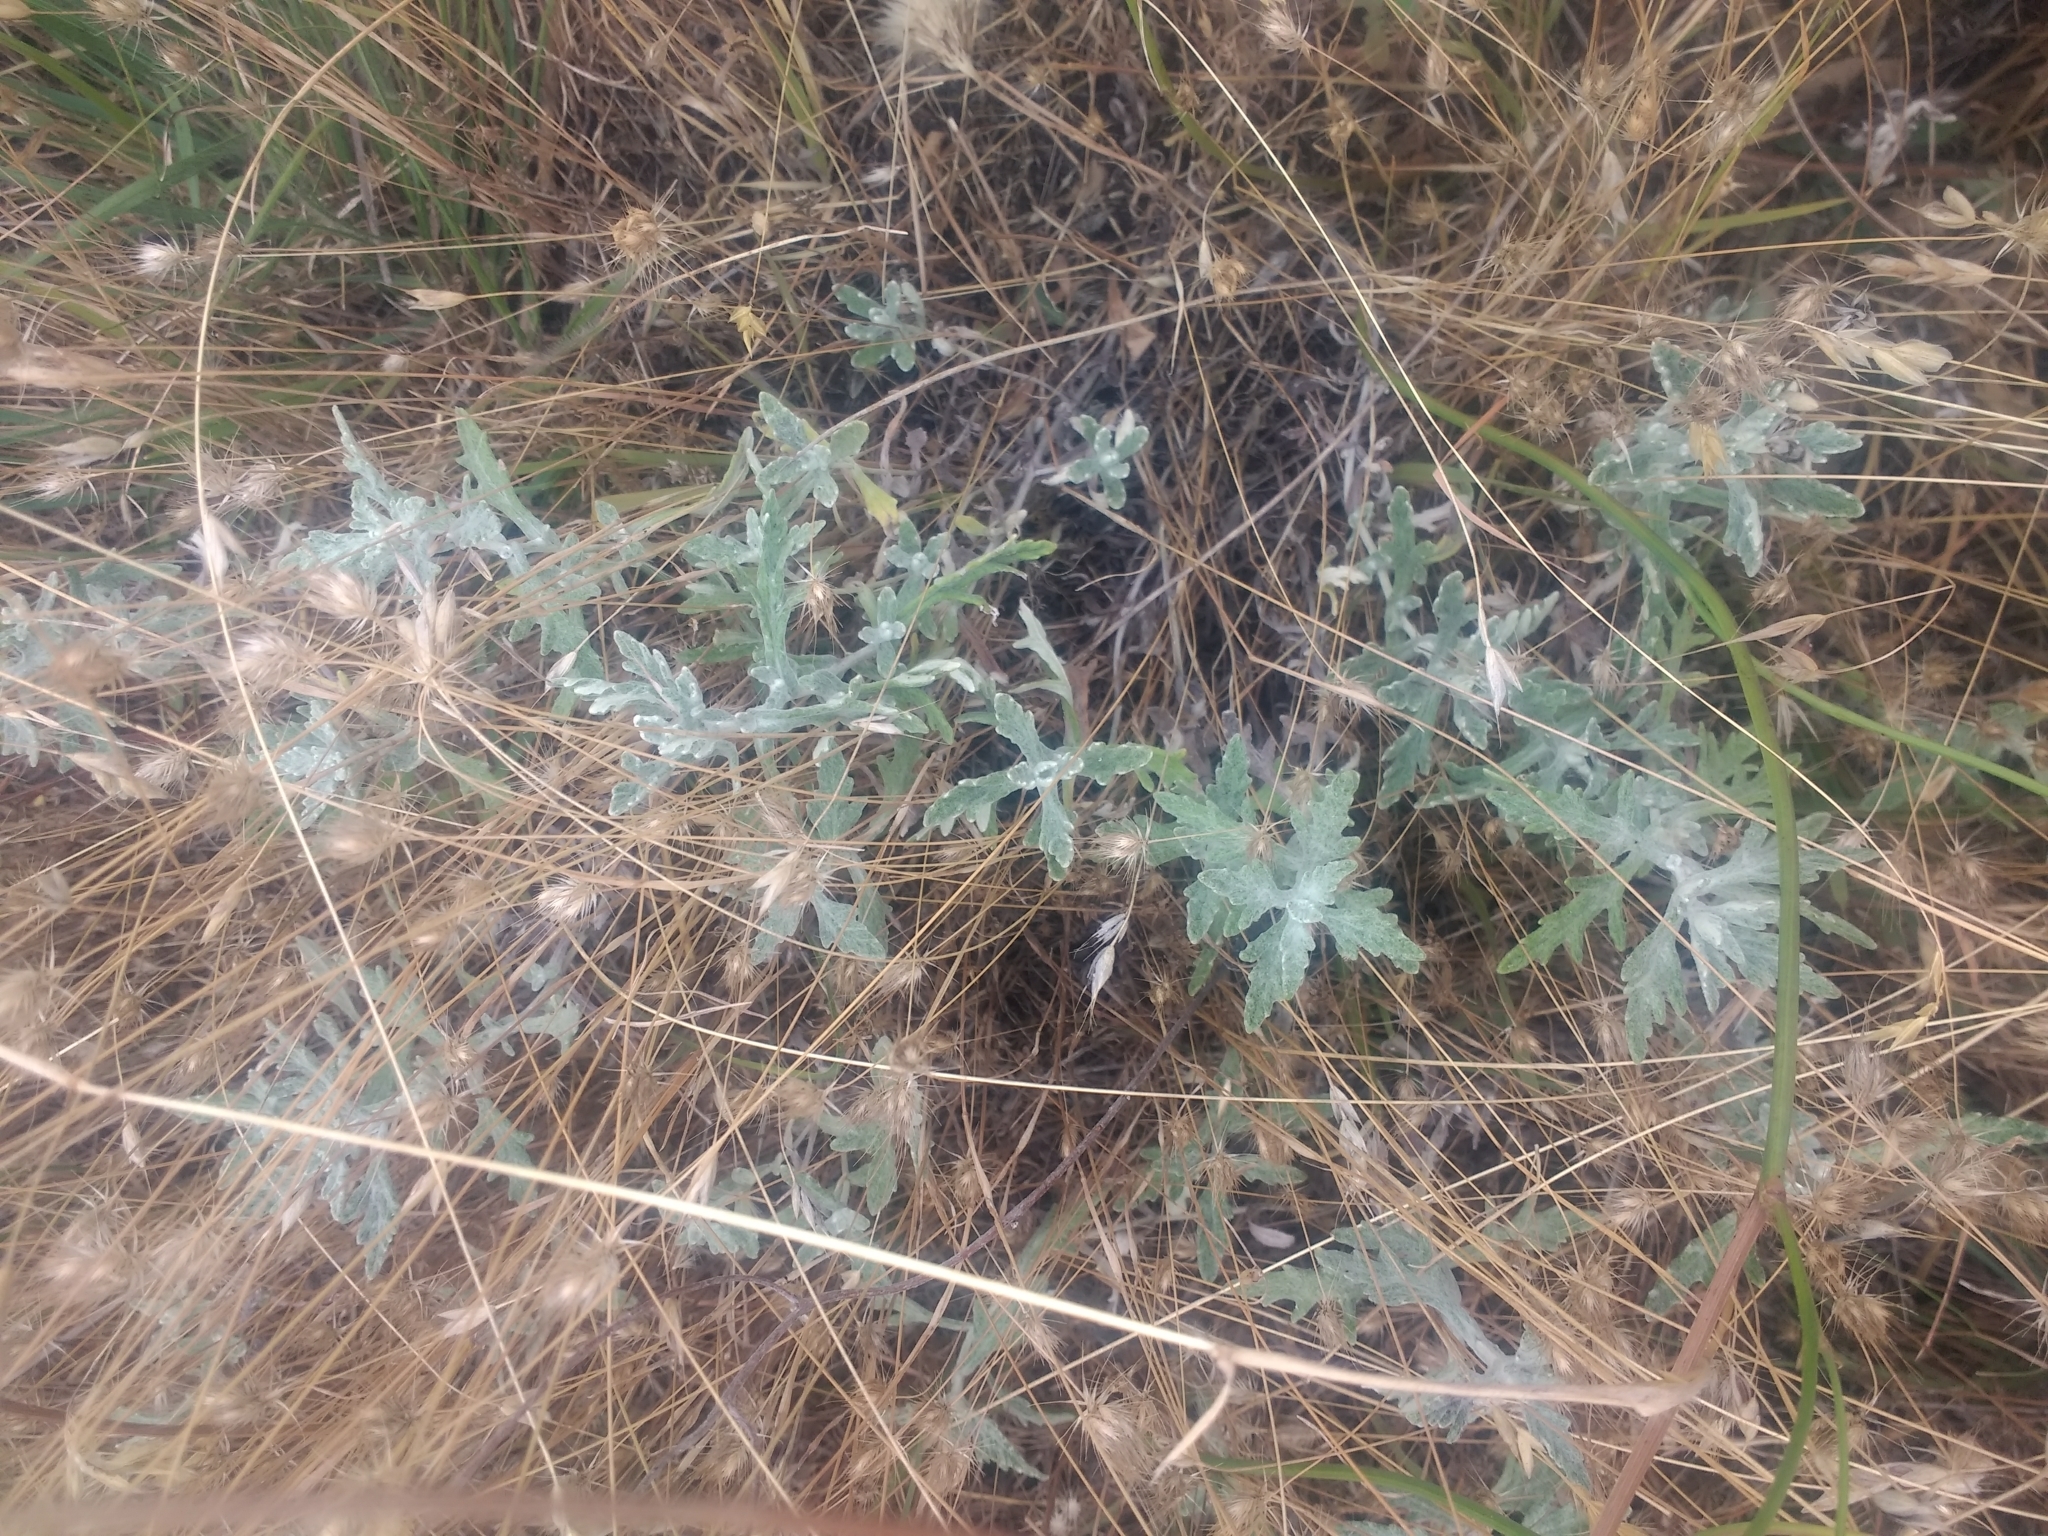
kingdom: Plantae
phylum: Tracheophyta
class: Magnoliopsida
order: Asterales
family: Asteraceae
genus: Eriophyllum
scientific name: Eriophyllum lanatum
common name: Common woolly-sunflower
